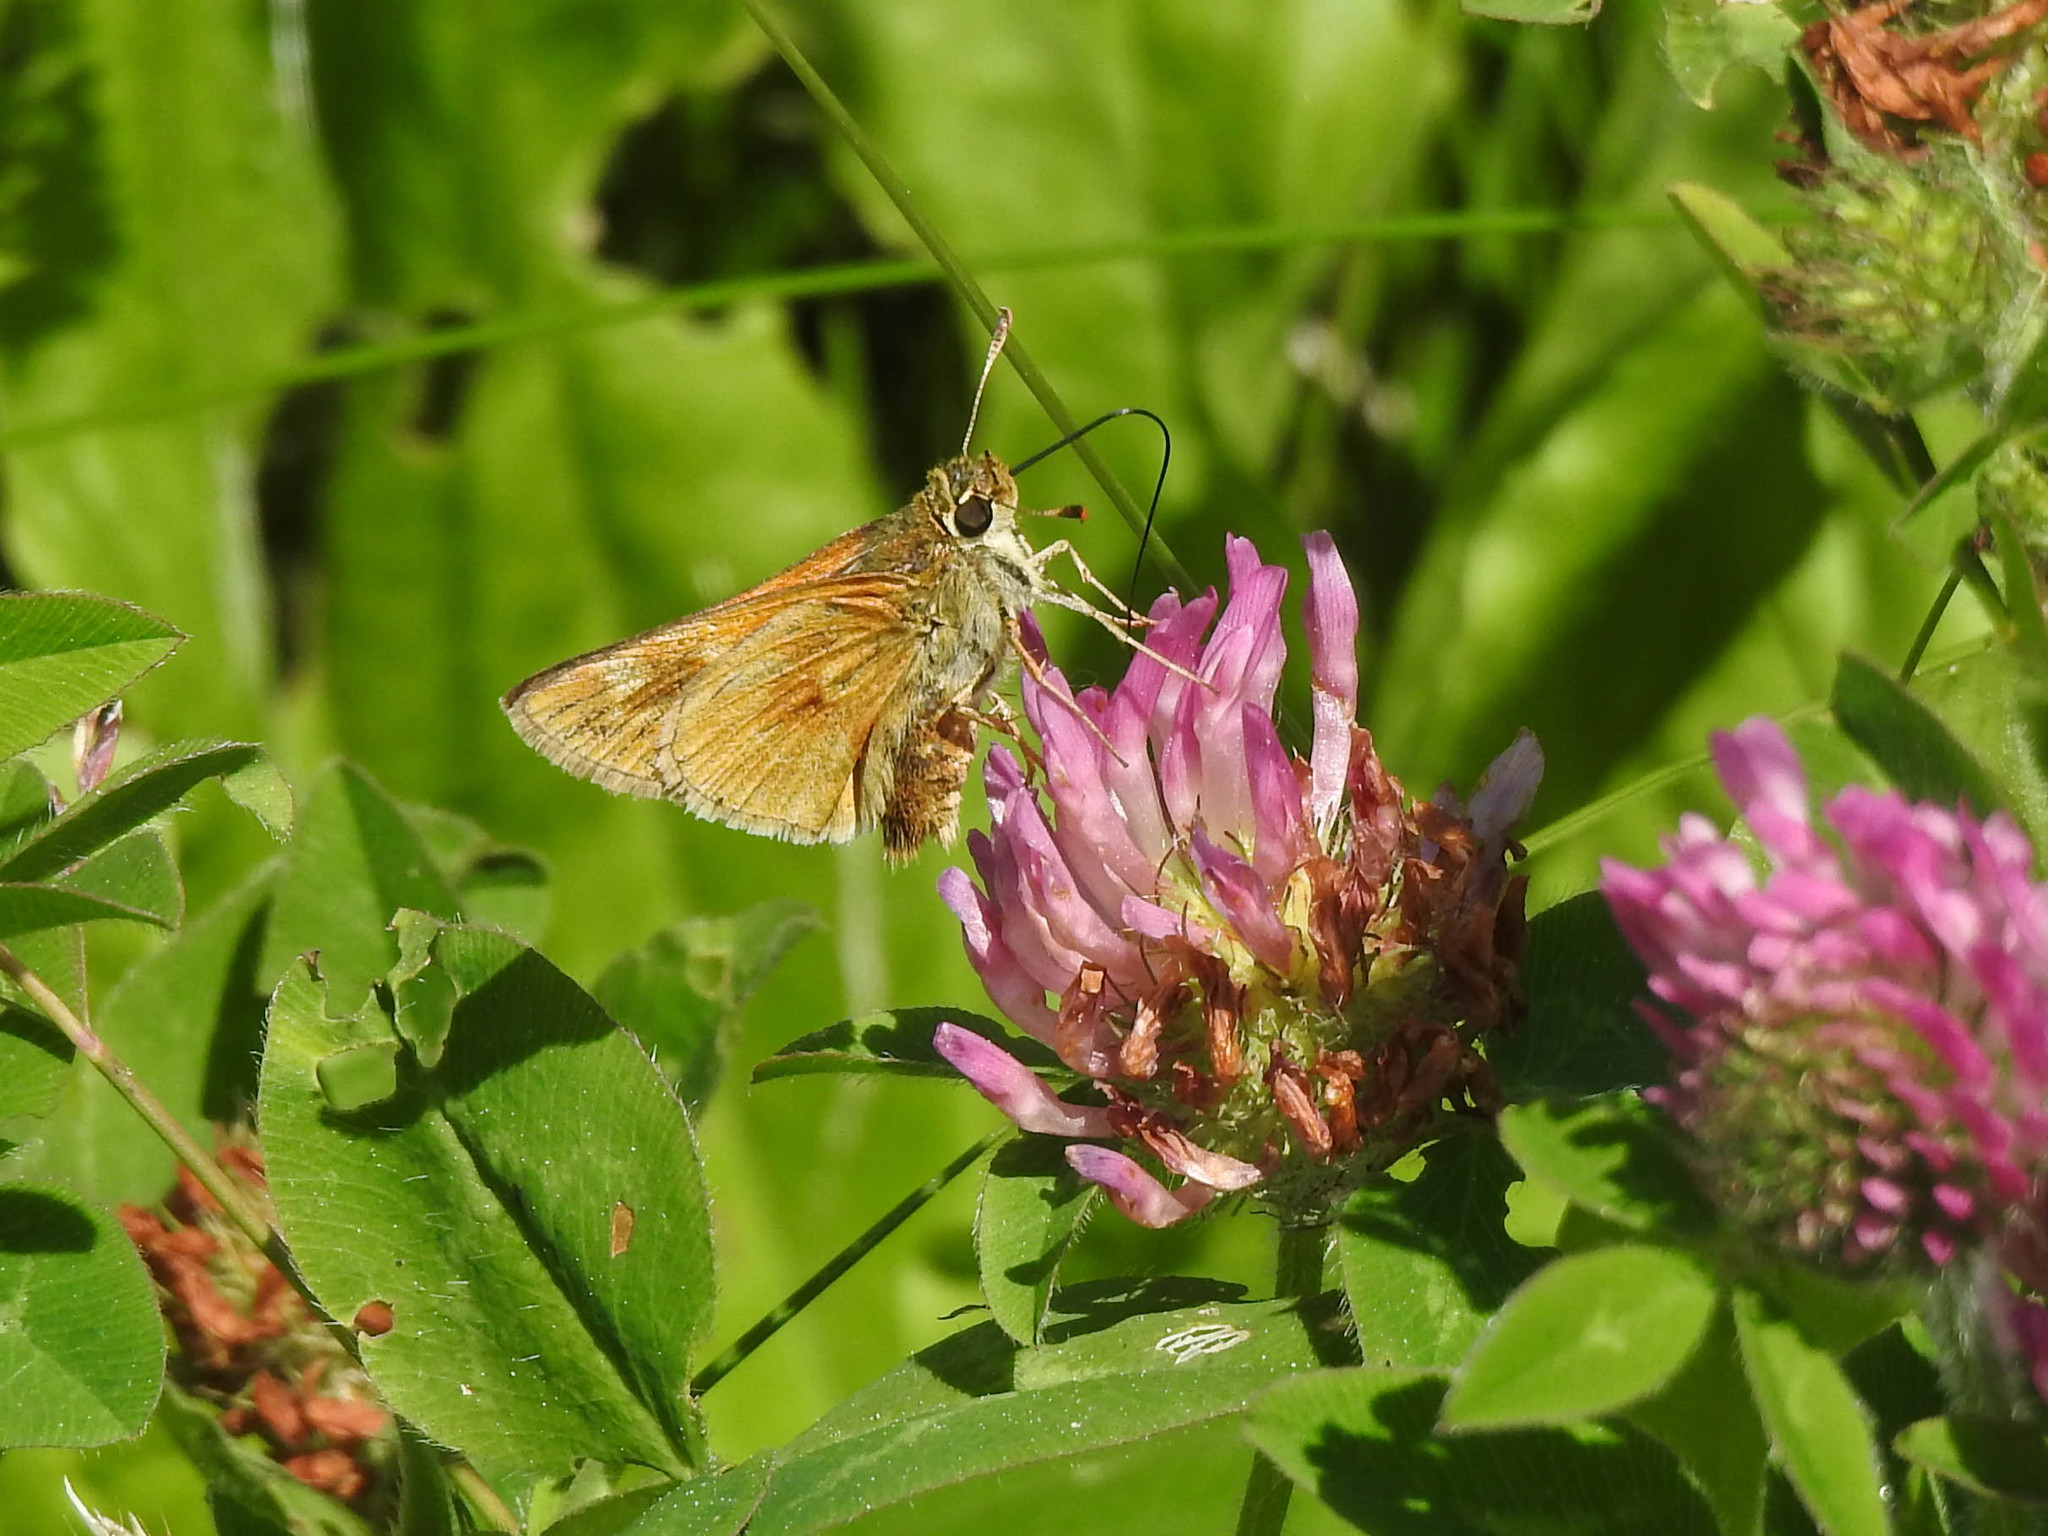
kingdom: Animalia
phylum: Arthropoda
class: Insecta
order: Lepidoptera
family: Hesperiidae
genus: Polites
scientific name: Polites mystic
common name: Long dash
